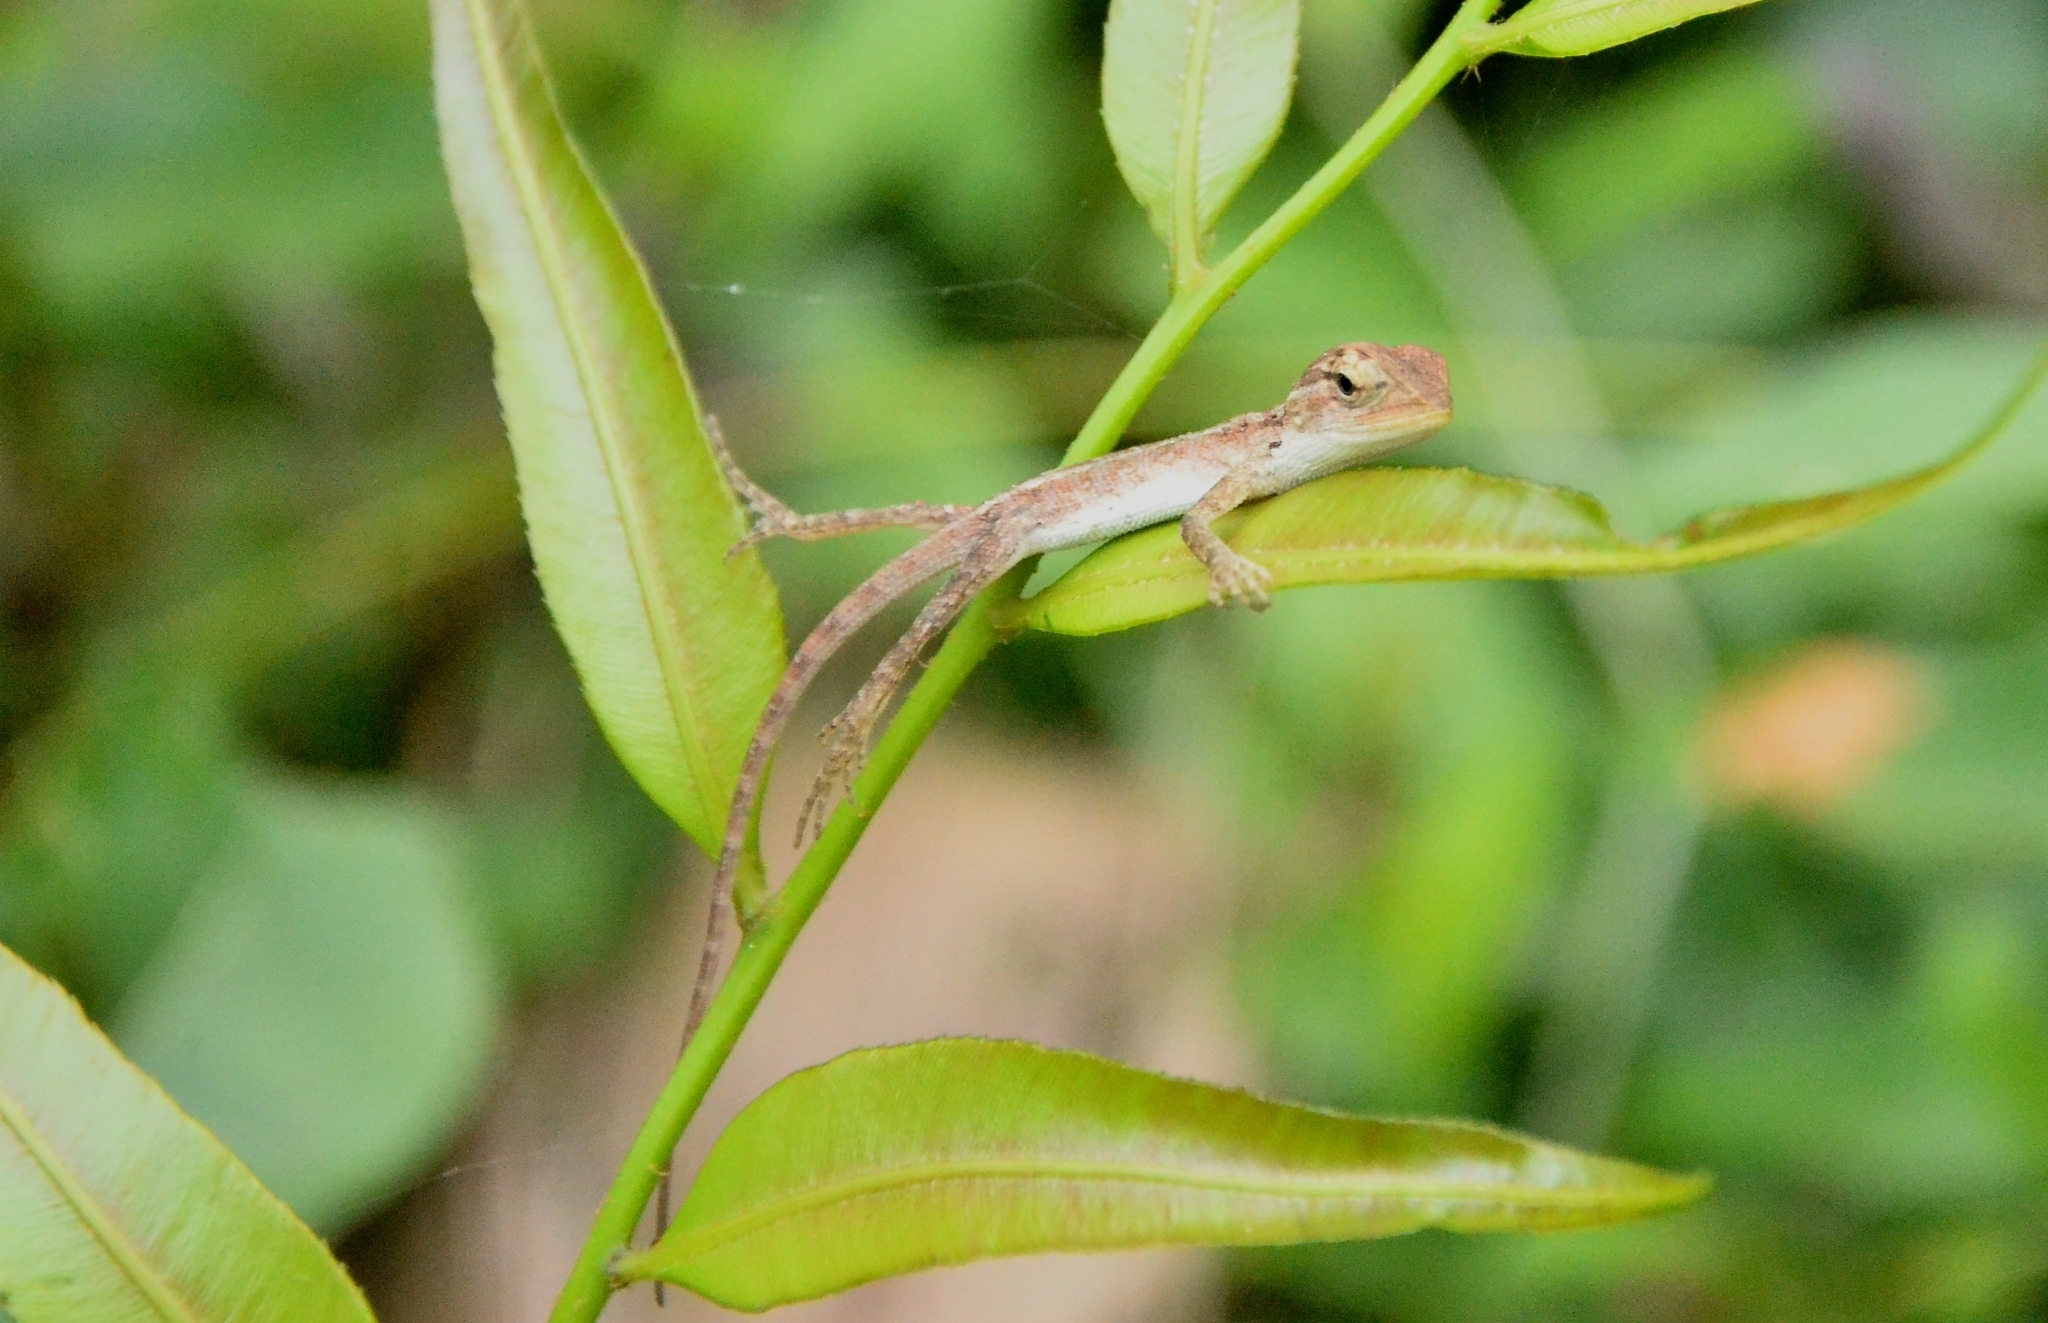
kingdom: Animalia
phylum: Chordata
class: Squamata
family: Agamidae
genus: Calotes
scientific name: Calotes versicolor
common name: Oriental garden lizard
